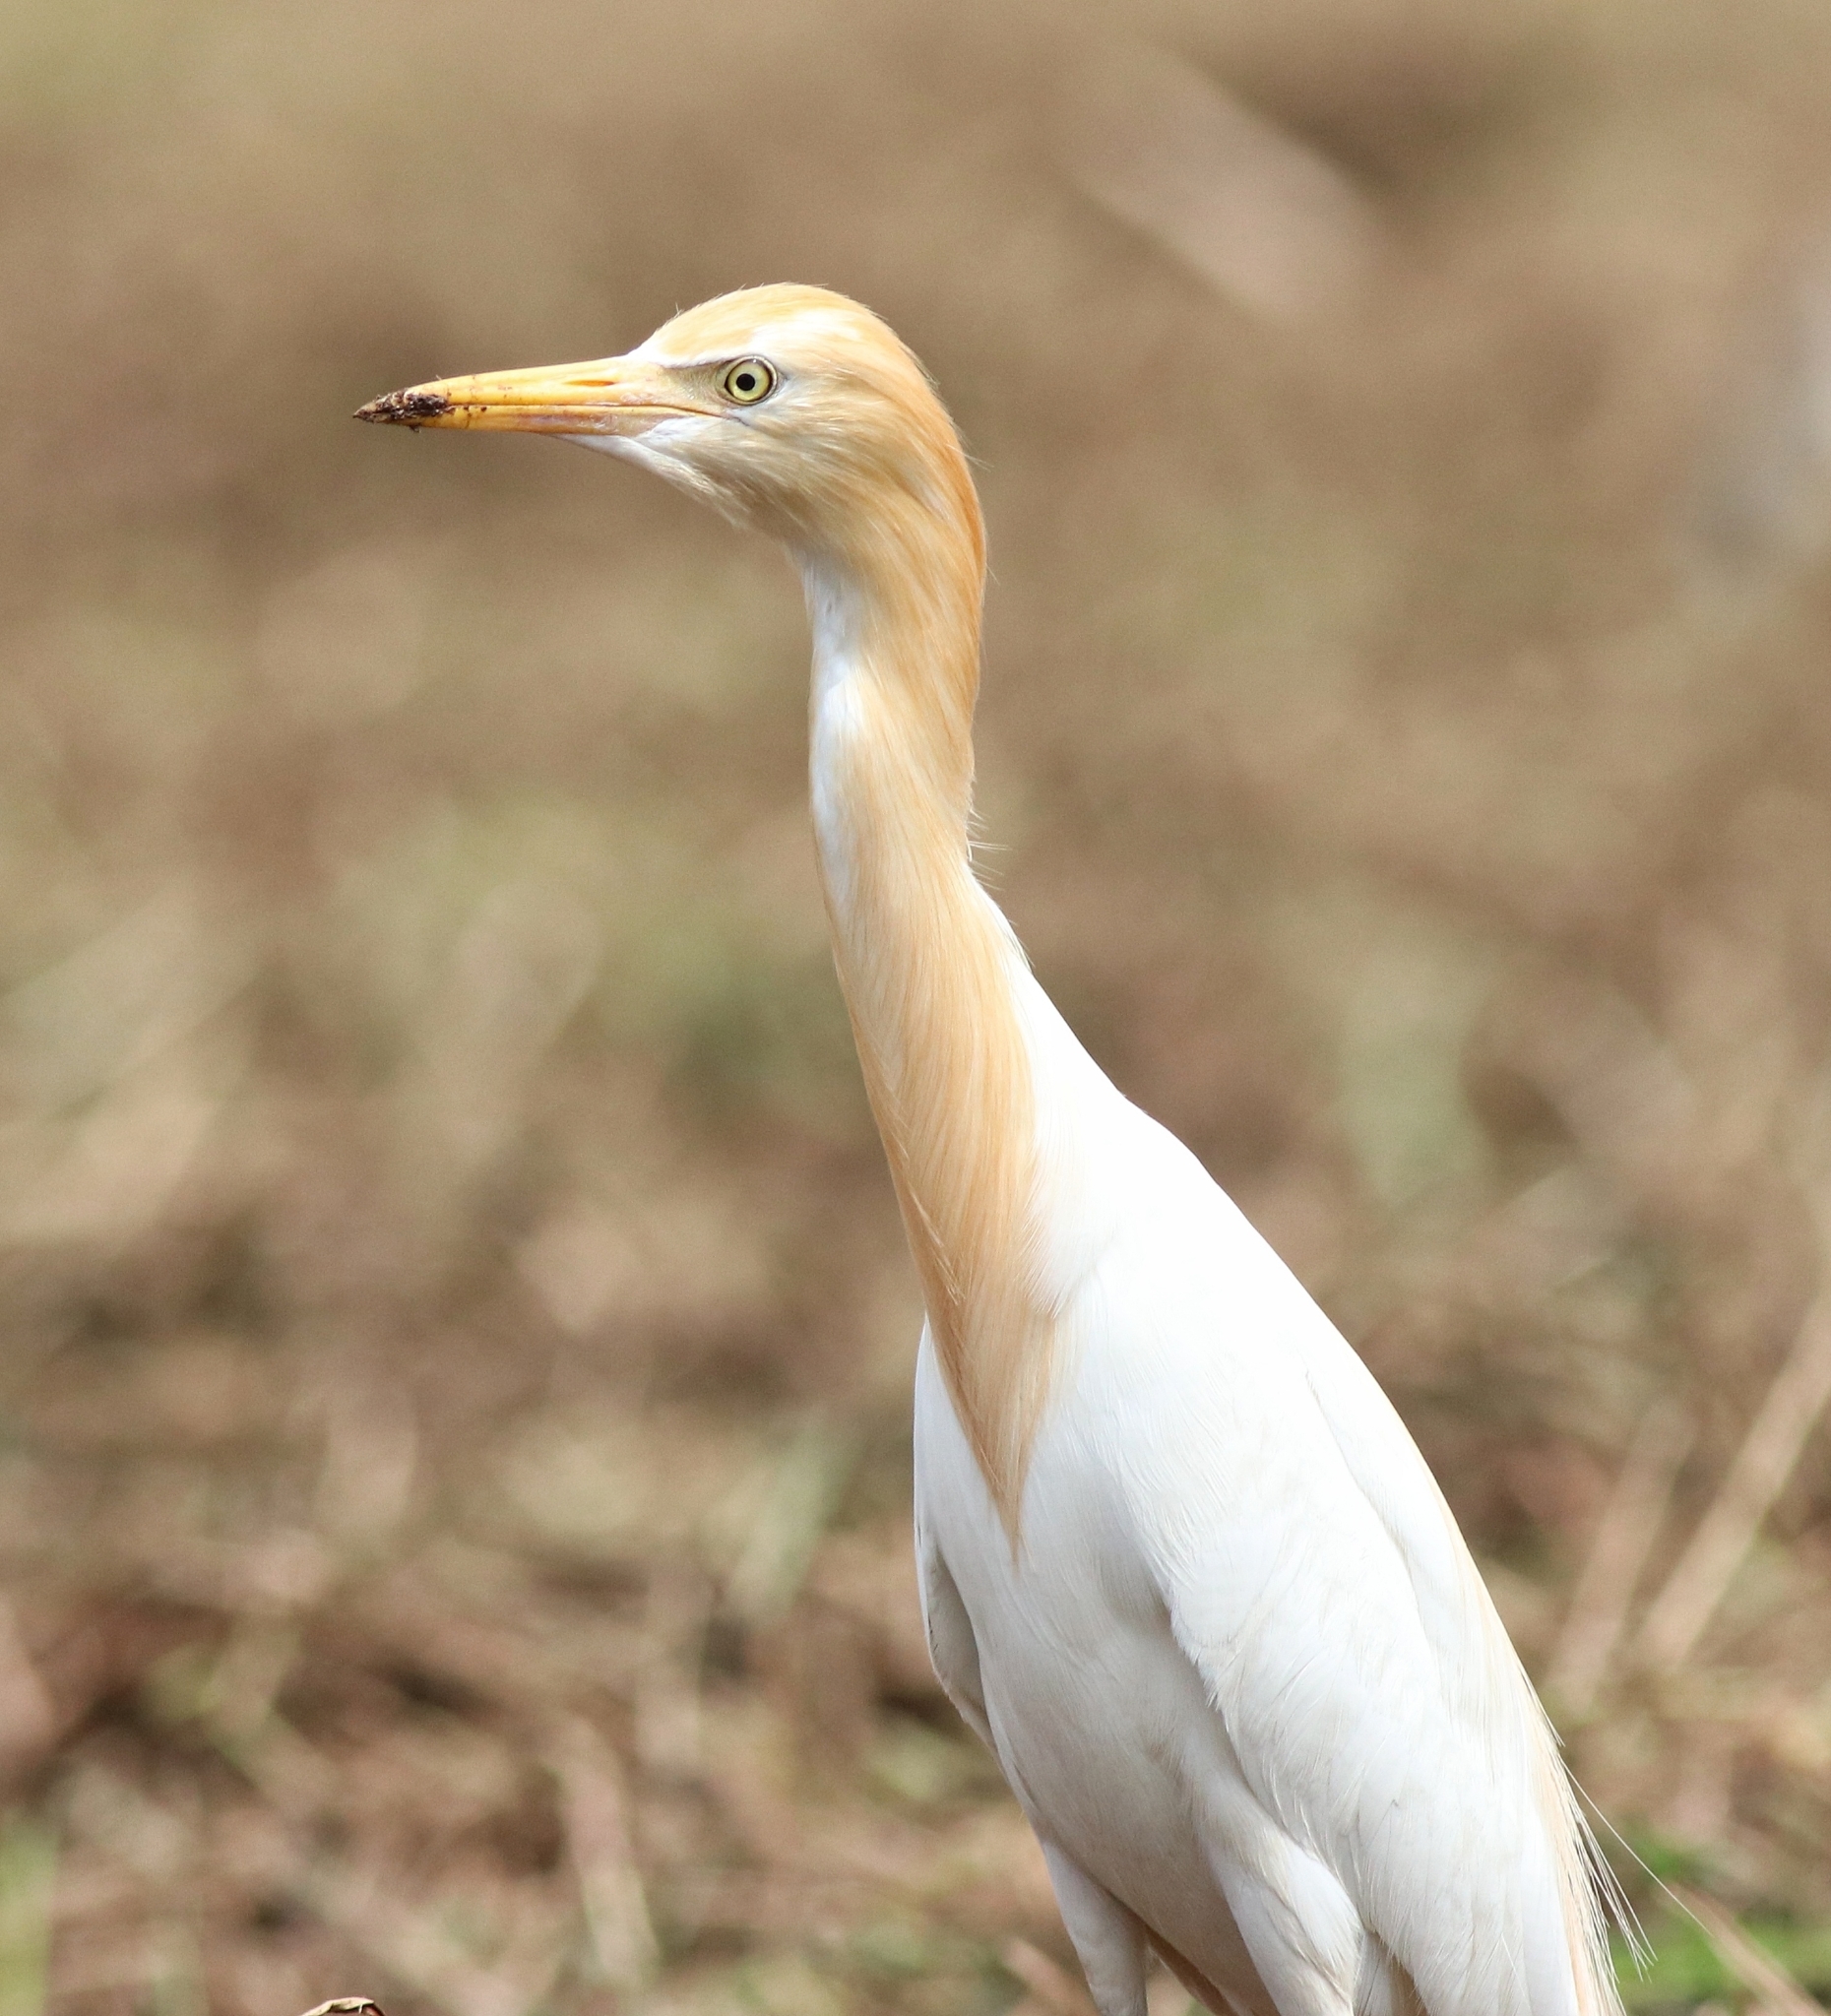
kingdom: Animalia
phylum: Chordata
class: Aves
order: Pelecaniformes
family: Ardeidae
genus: Bubulcus
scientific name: Bubulcus coromandus
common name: Eastern cattle egret
